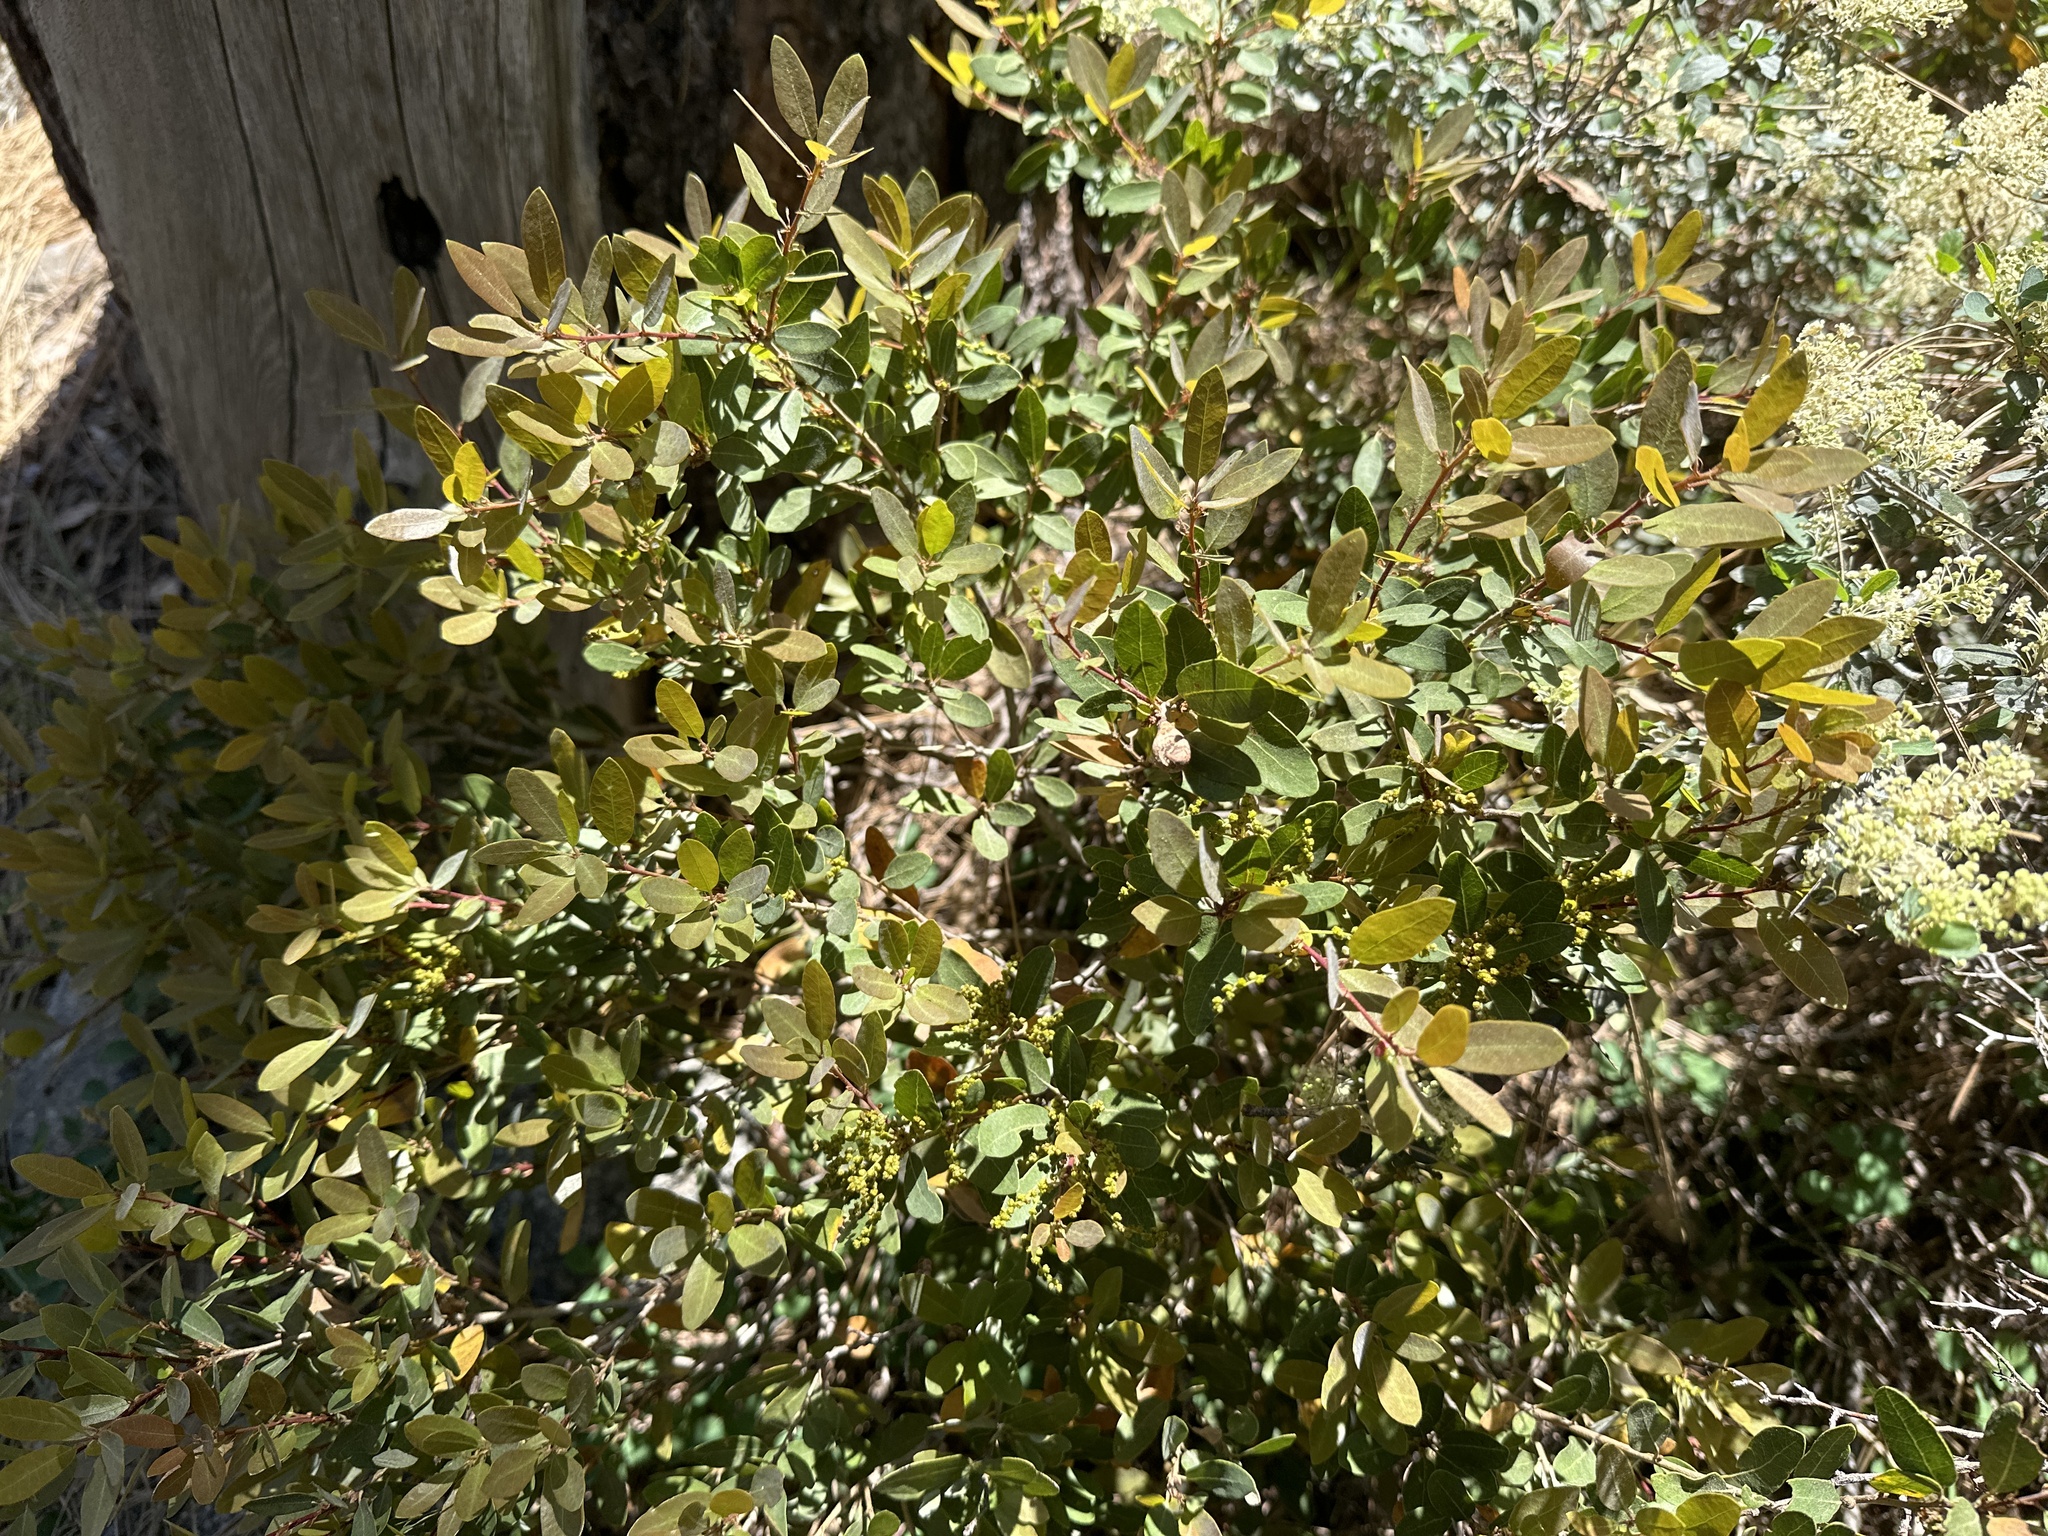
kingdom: Plantae
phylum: Tracheophyta
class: Magnoliopsida
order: Fagales
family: Fagaceae
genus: Quercus
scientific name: Quercus vacciniifolia
